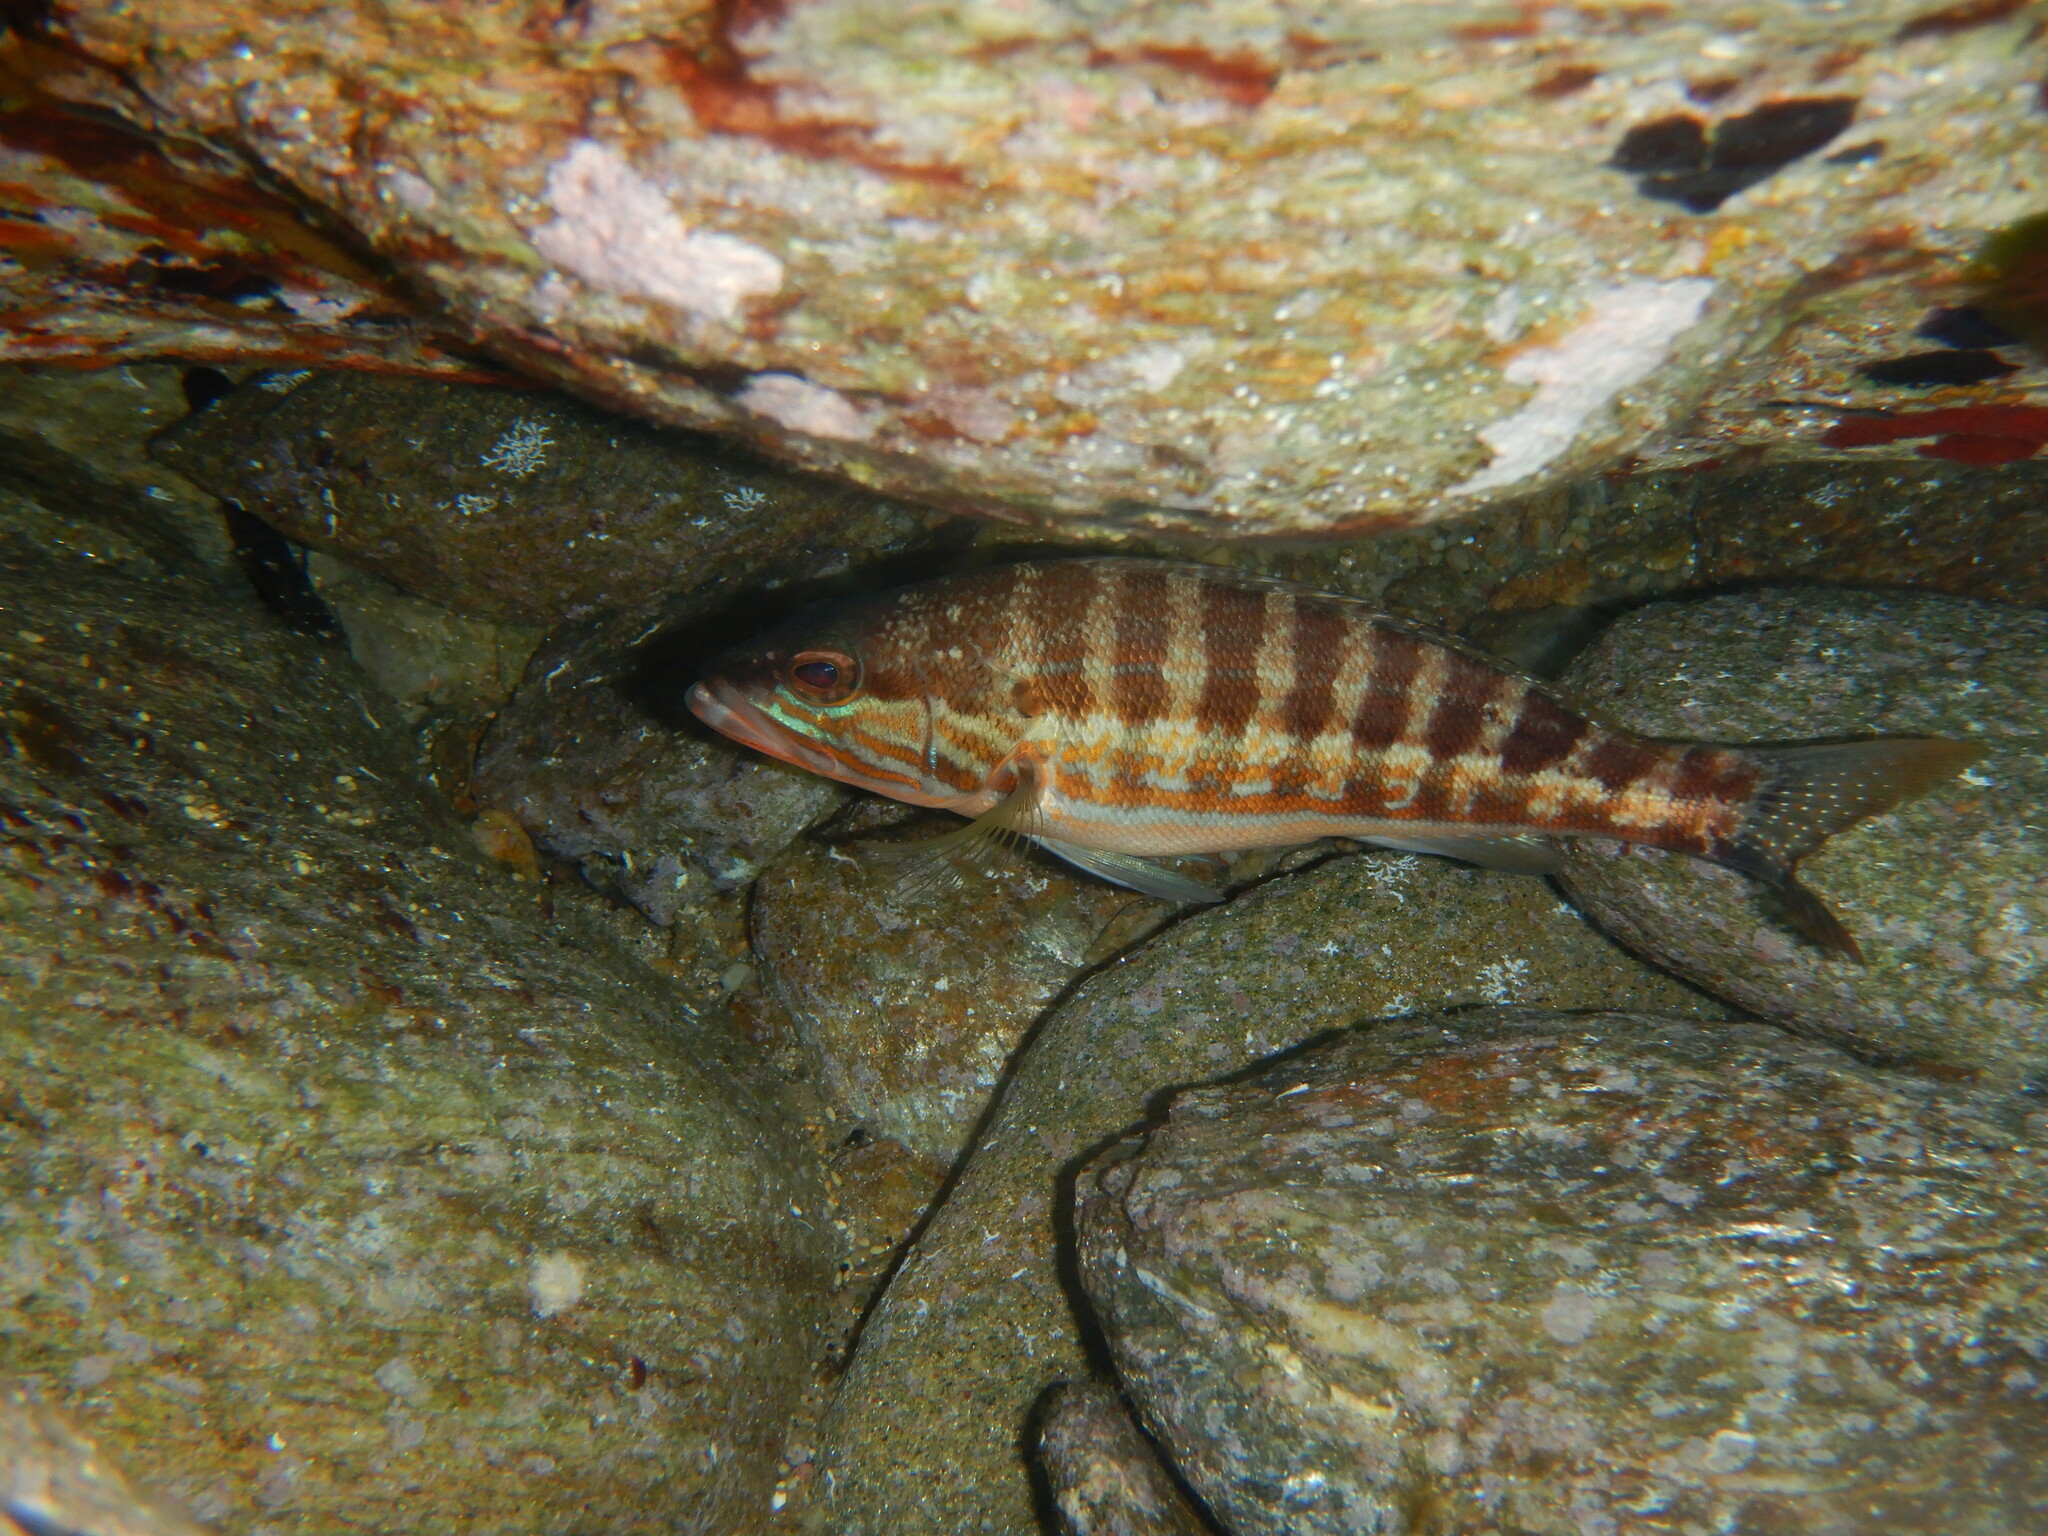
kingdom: Animalia
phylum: Chordata
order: Perciformes
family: Serranidae
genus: Serranus
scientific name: Serranus cabrilla
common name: Comber
